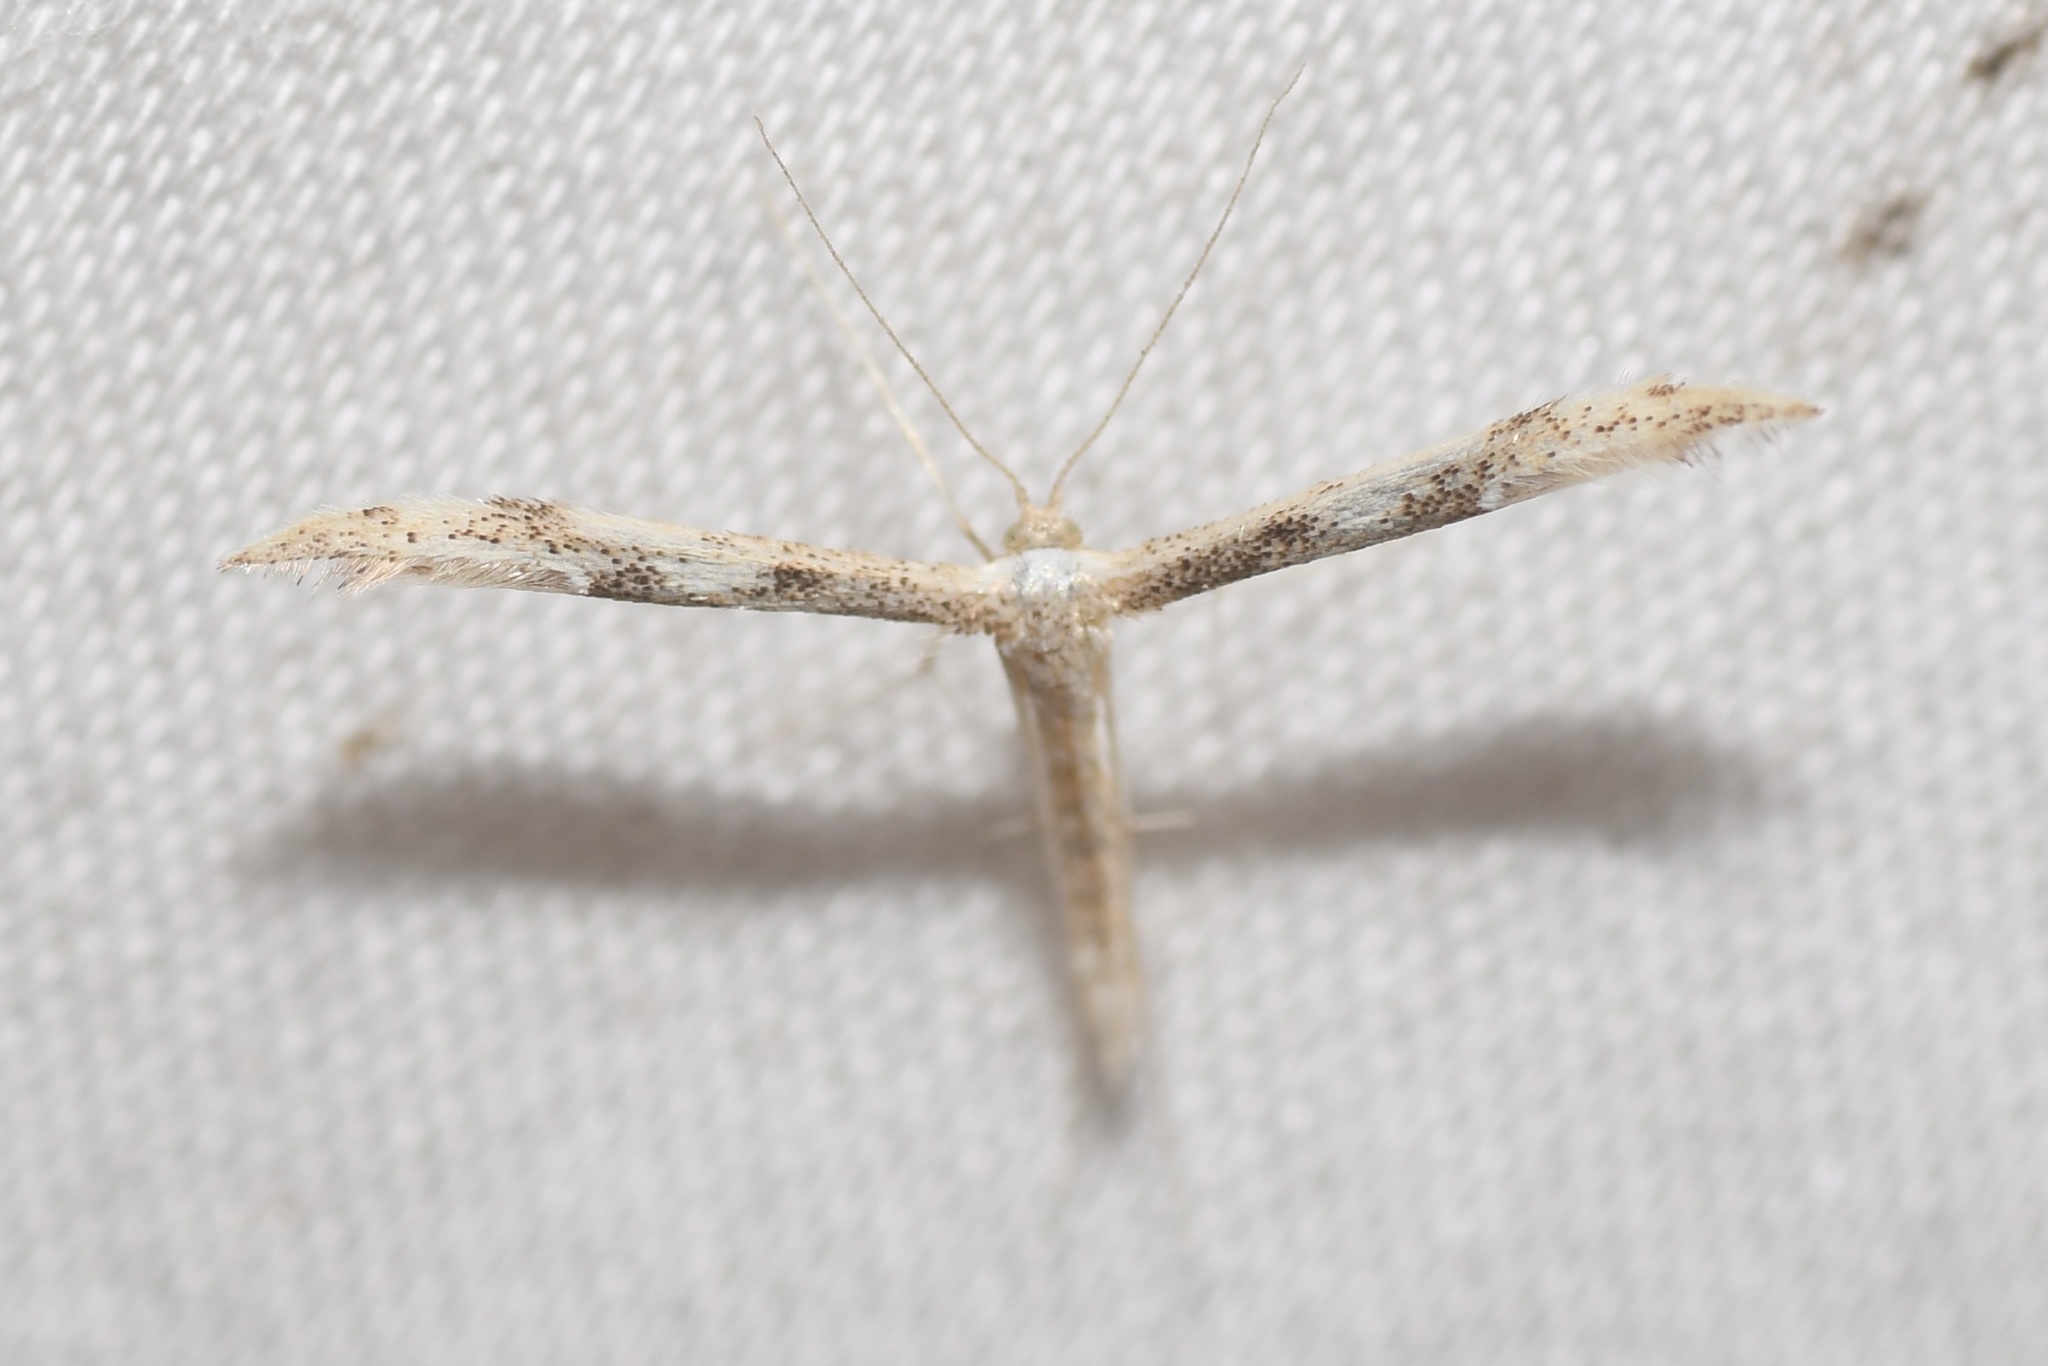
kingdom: Animalia
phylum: Arthropoda
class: Insecta
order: Lepidoptera
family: Pterophoridae
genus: Adaina
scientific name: Adaina montanus
